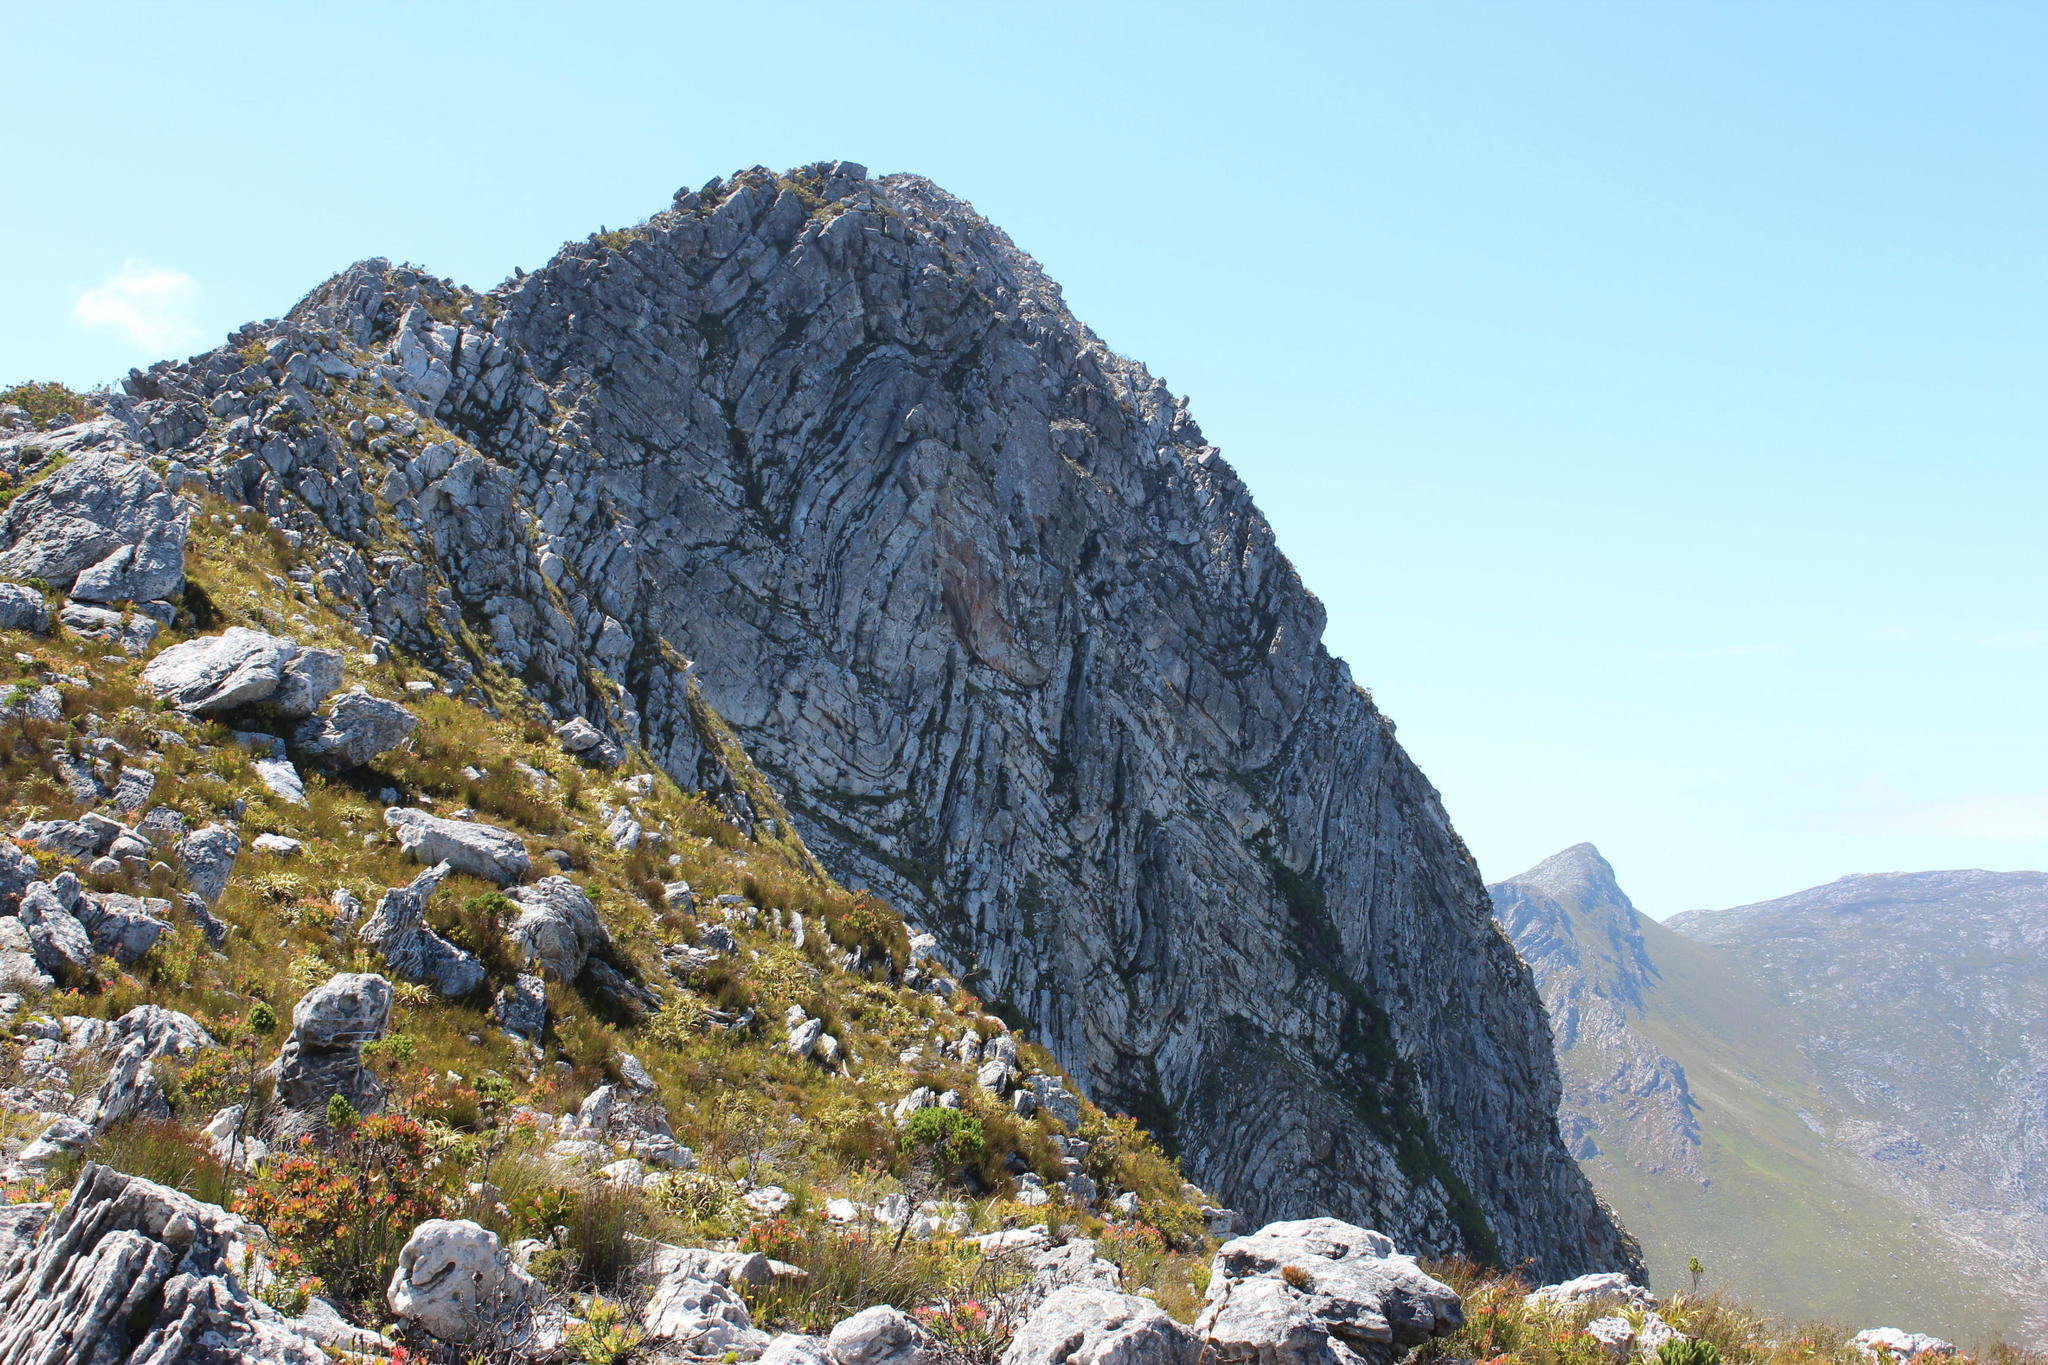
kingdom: Plantae
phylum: Tracheophyta
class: Magnoliopsida
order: Caryophyllales
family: Droseraceae
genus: Drosera
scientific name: Drosera glabripes
